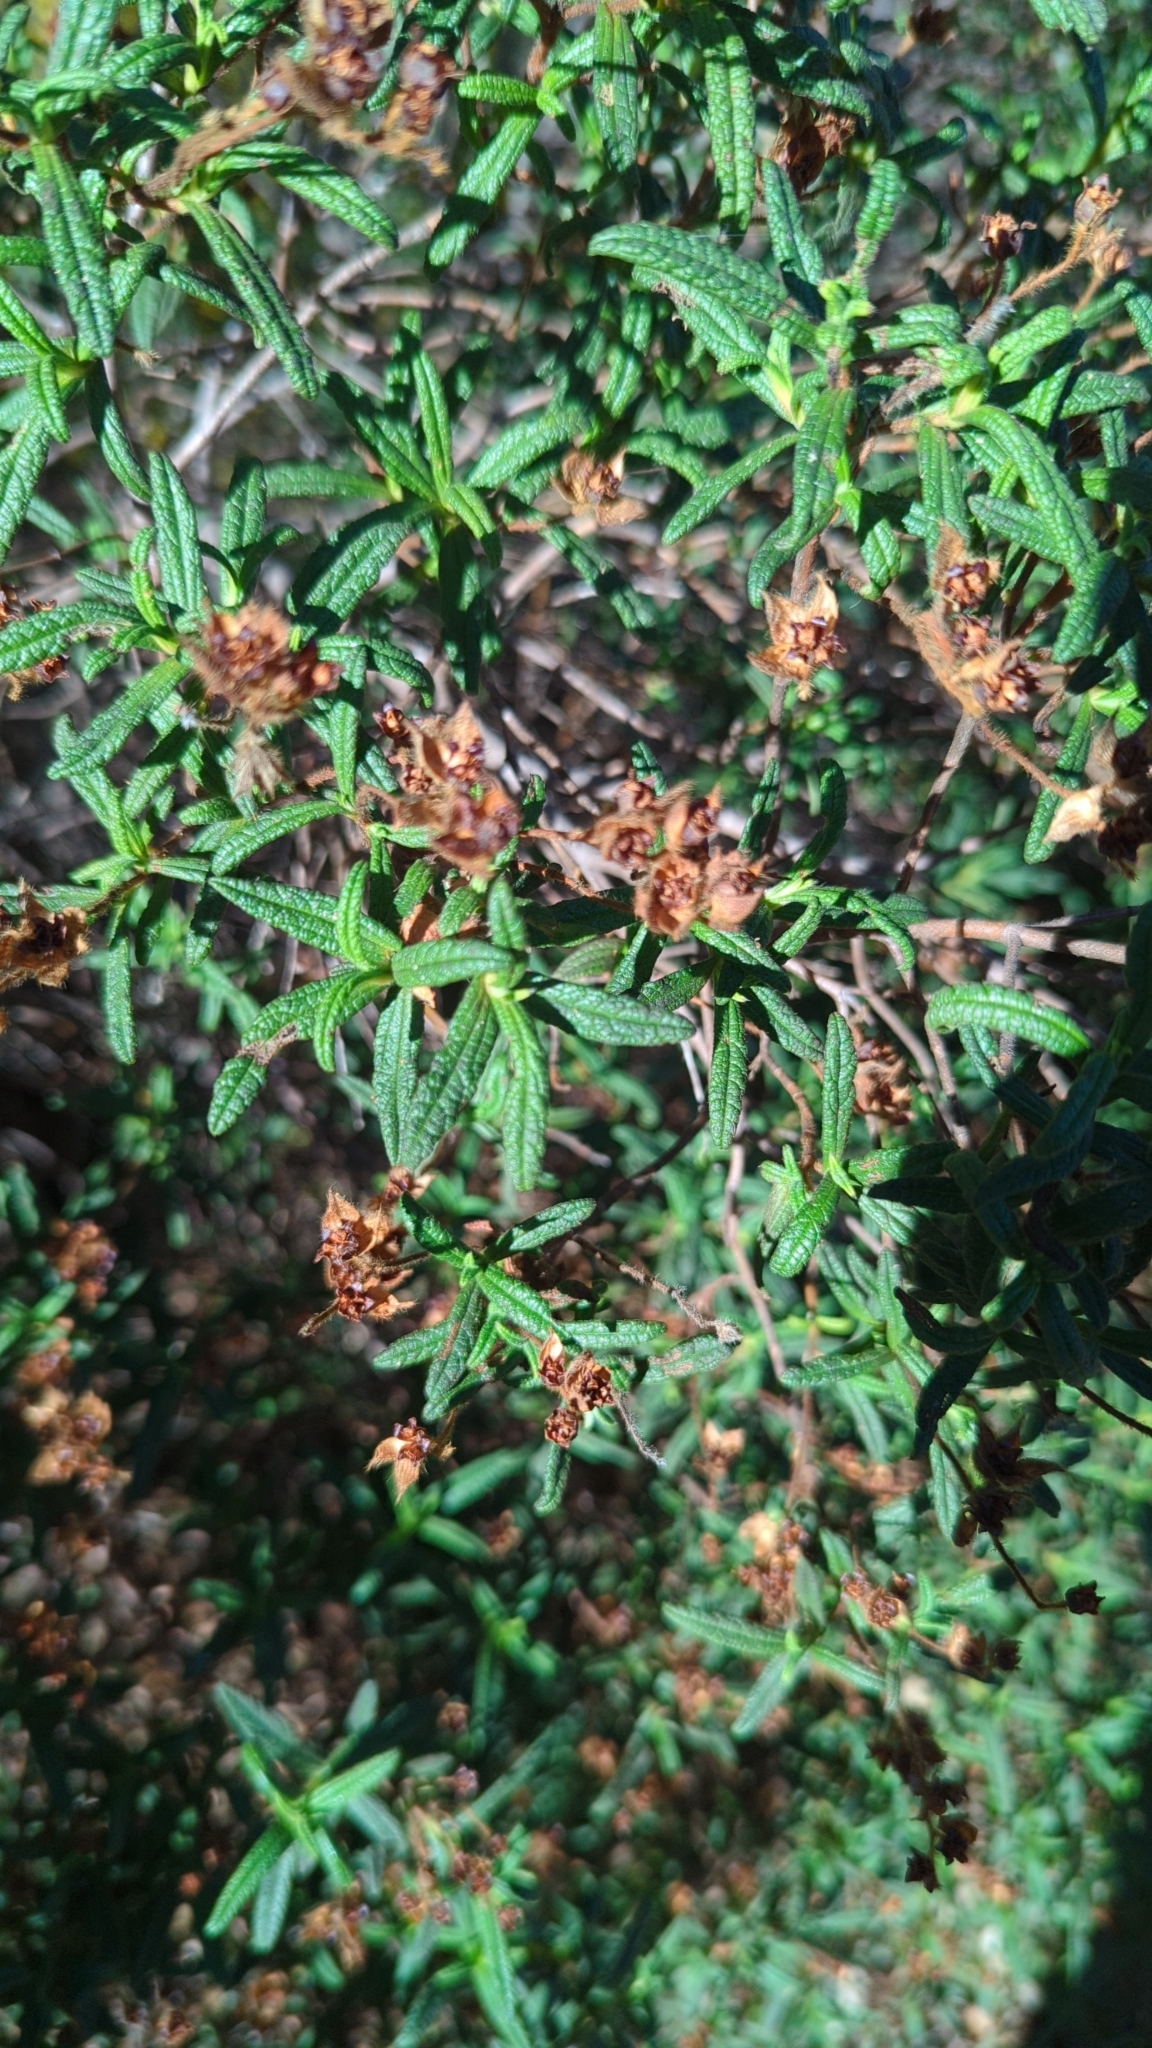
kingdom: Plantae
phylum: Tracheophyta
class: Magnoliopsida
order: Malvales
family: Cistaceae
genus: Cistus
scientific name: Cistus monspeliensis
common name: Montpelier cistus
